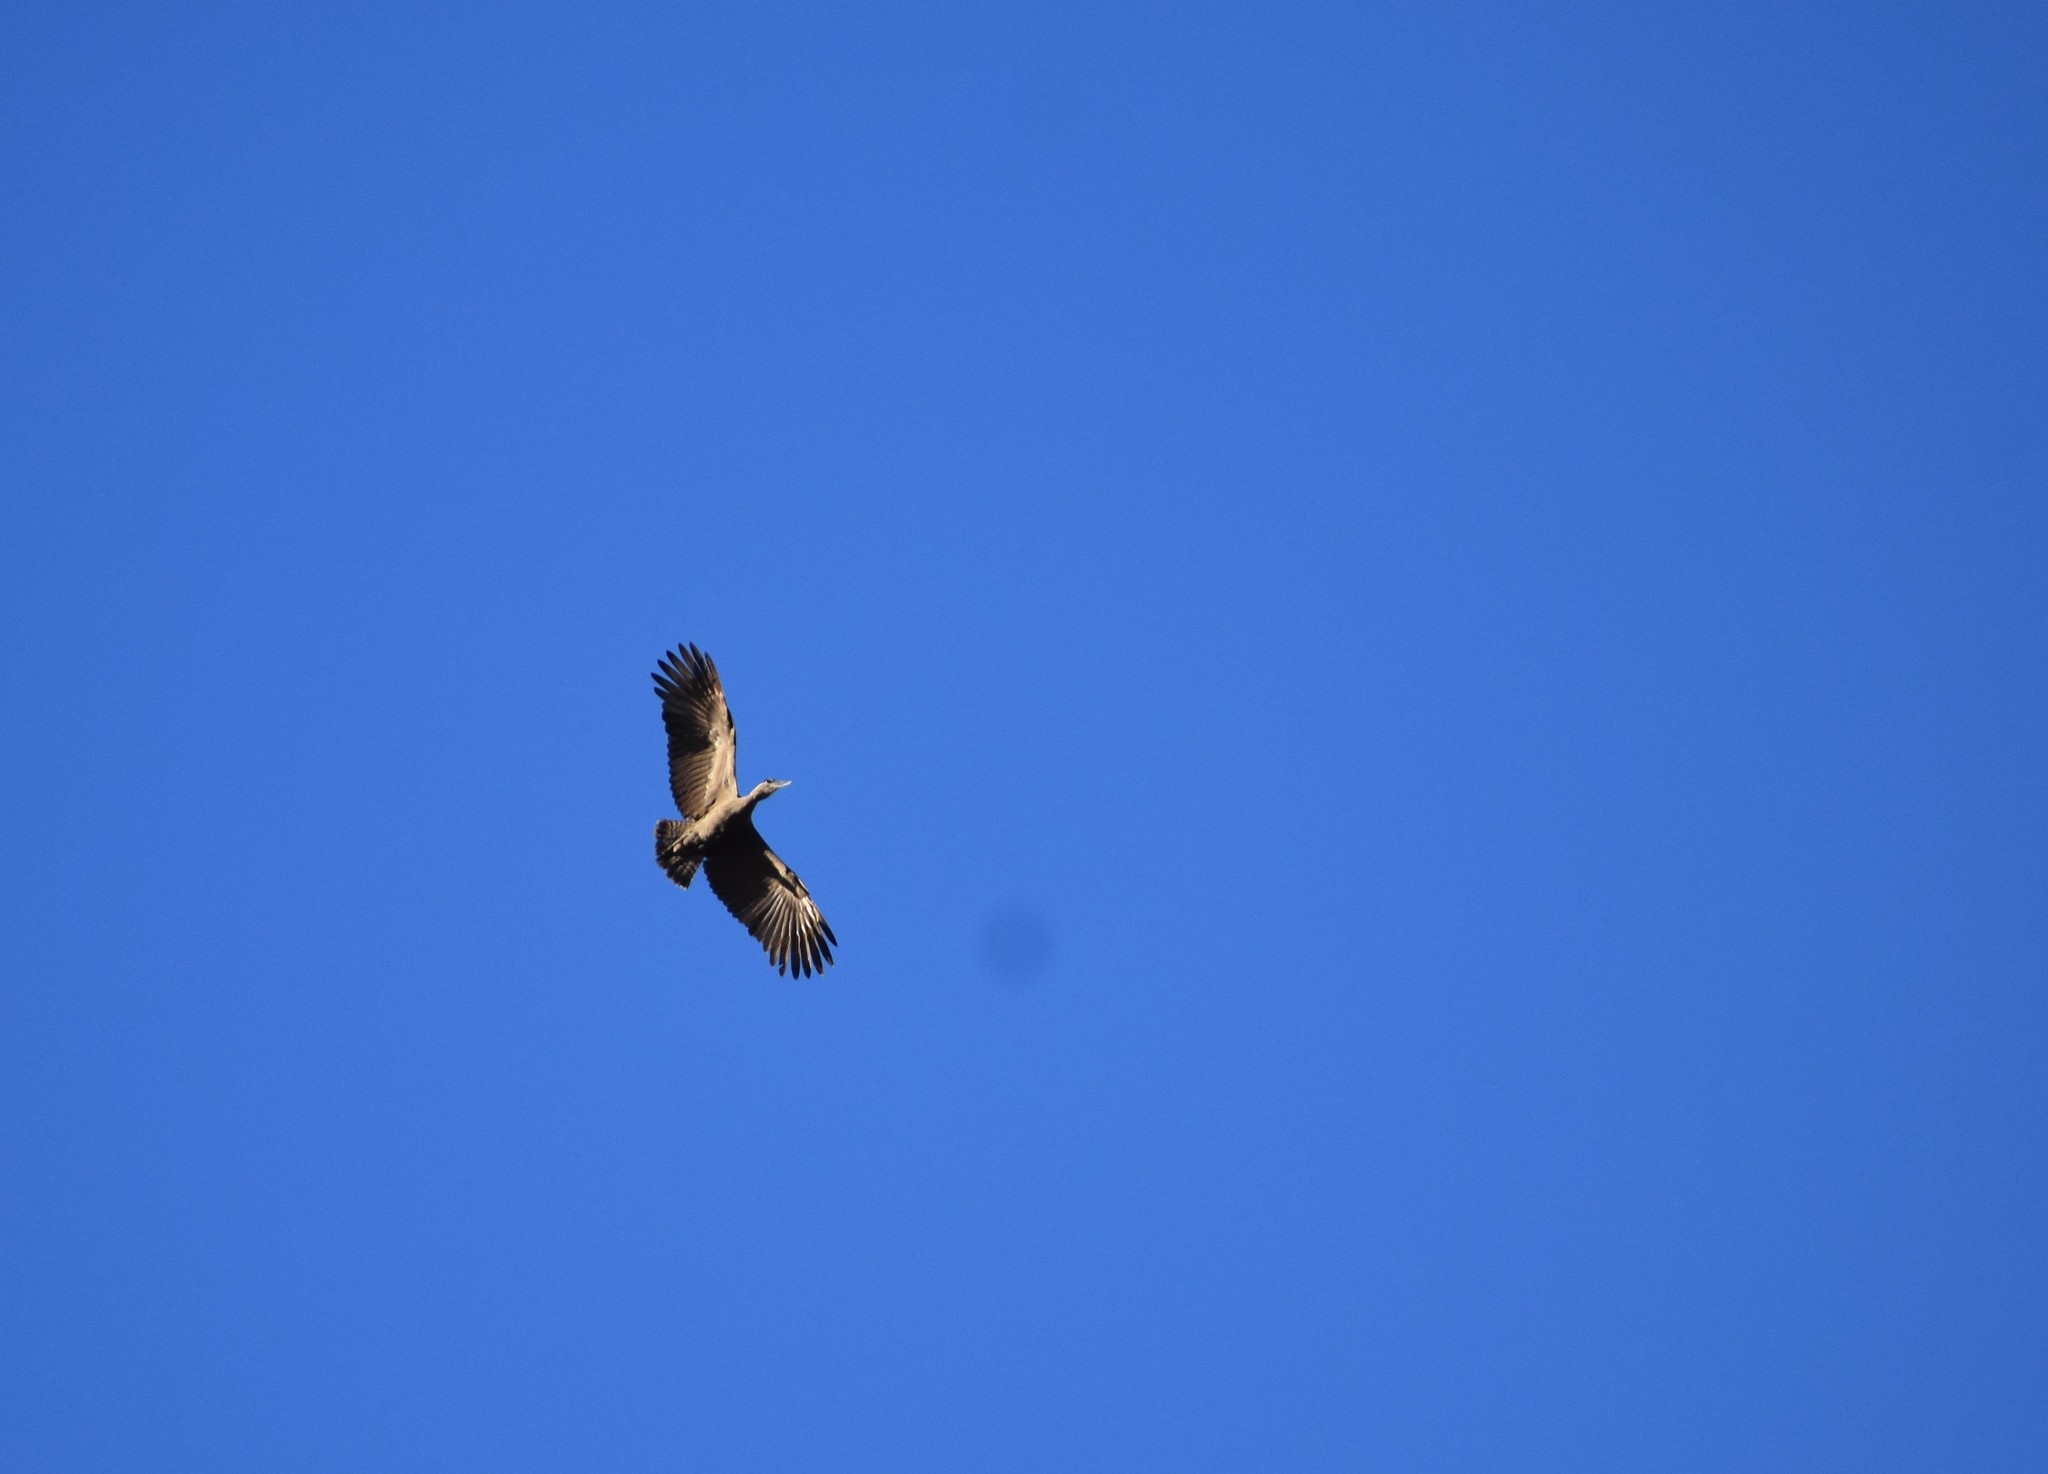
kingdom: Animalia
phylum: Chordata
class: Aves
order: Pelecaniformes
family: Scopidae
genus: Scopus
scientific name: Scopus umbretta
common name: Hamerkop
